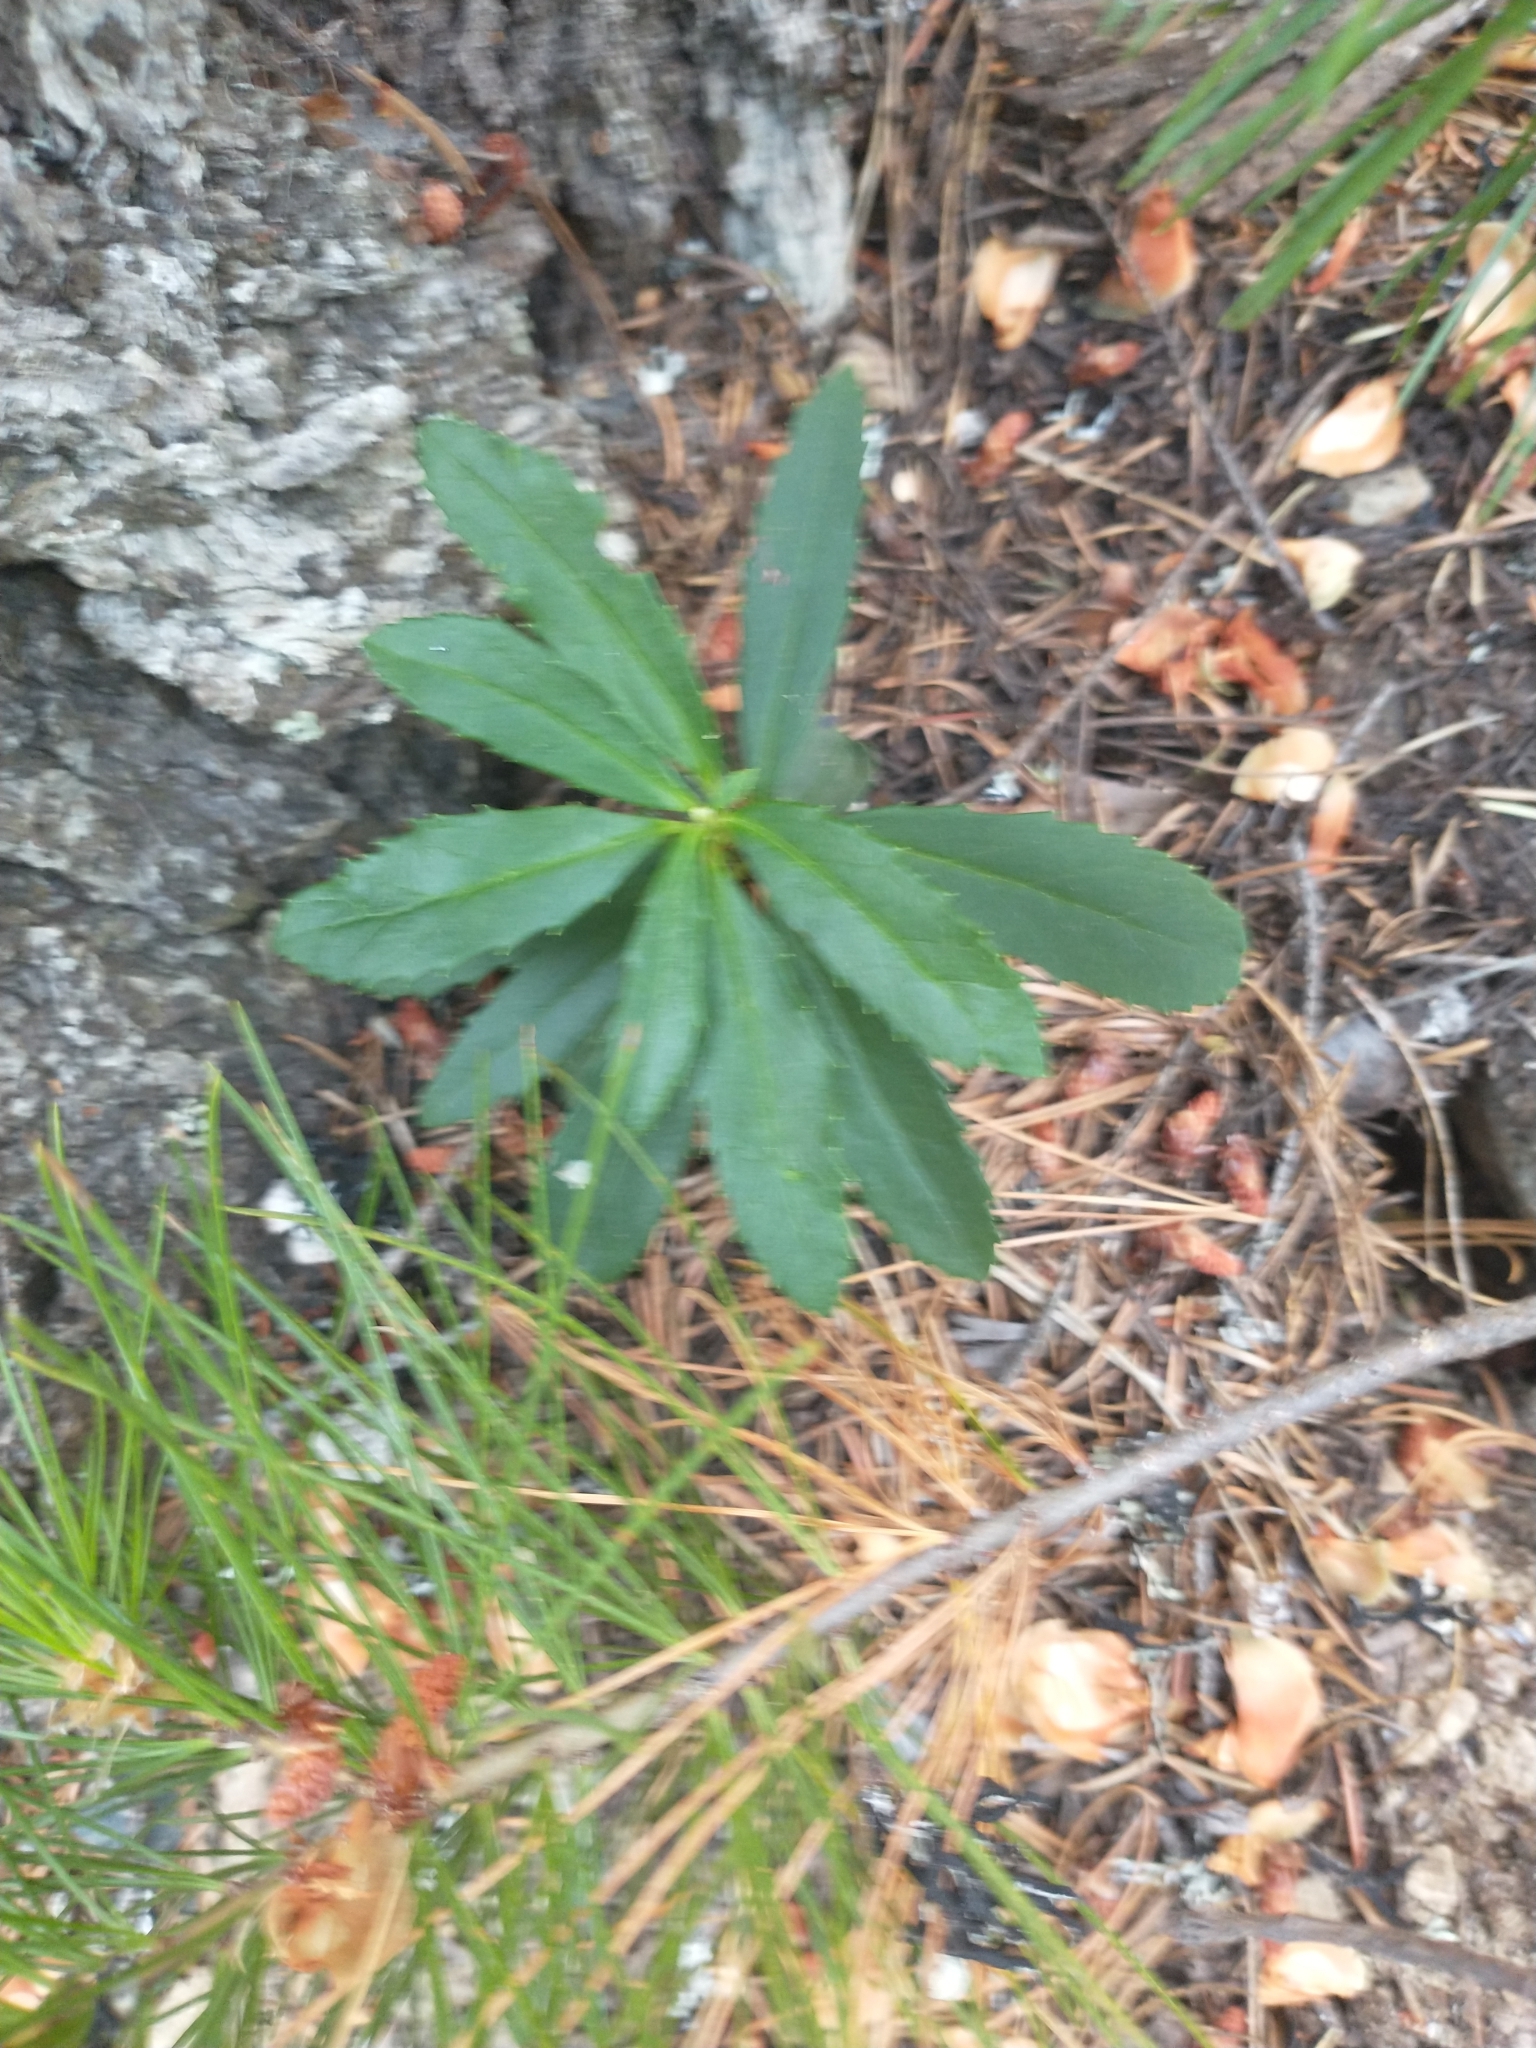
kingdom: Plantae
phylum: Tracheophyta
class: Magnoliopsida
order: Ericales
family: Ericaceae
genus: Chimaphila
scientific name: Chimaphila umbellata
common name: Pipsissewa
